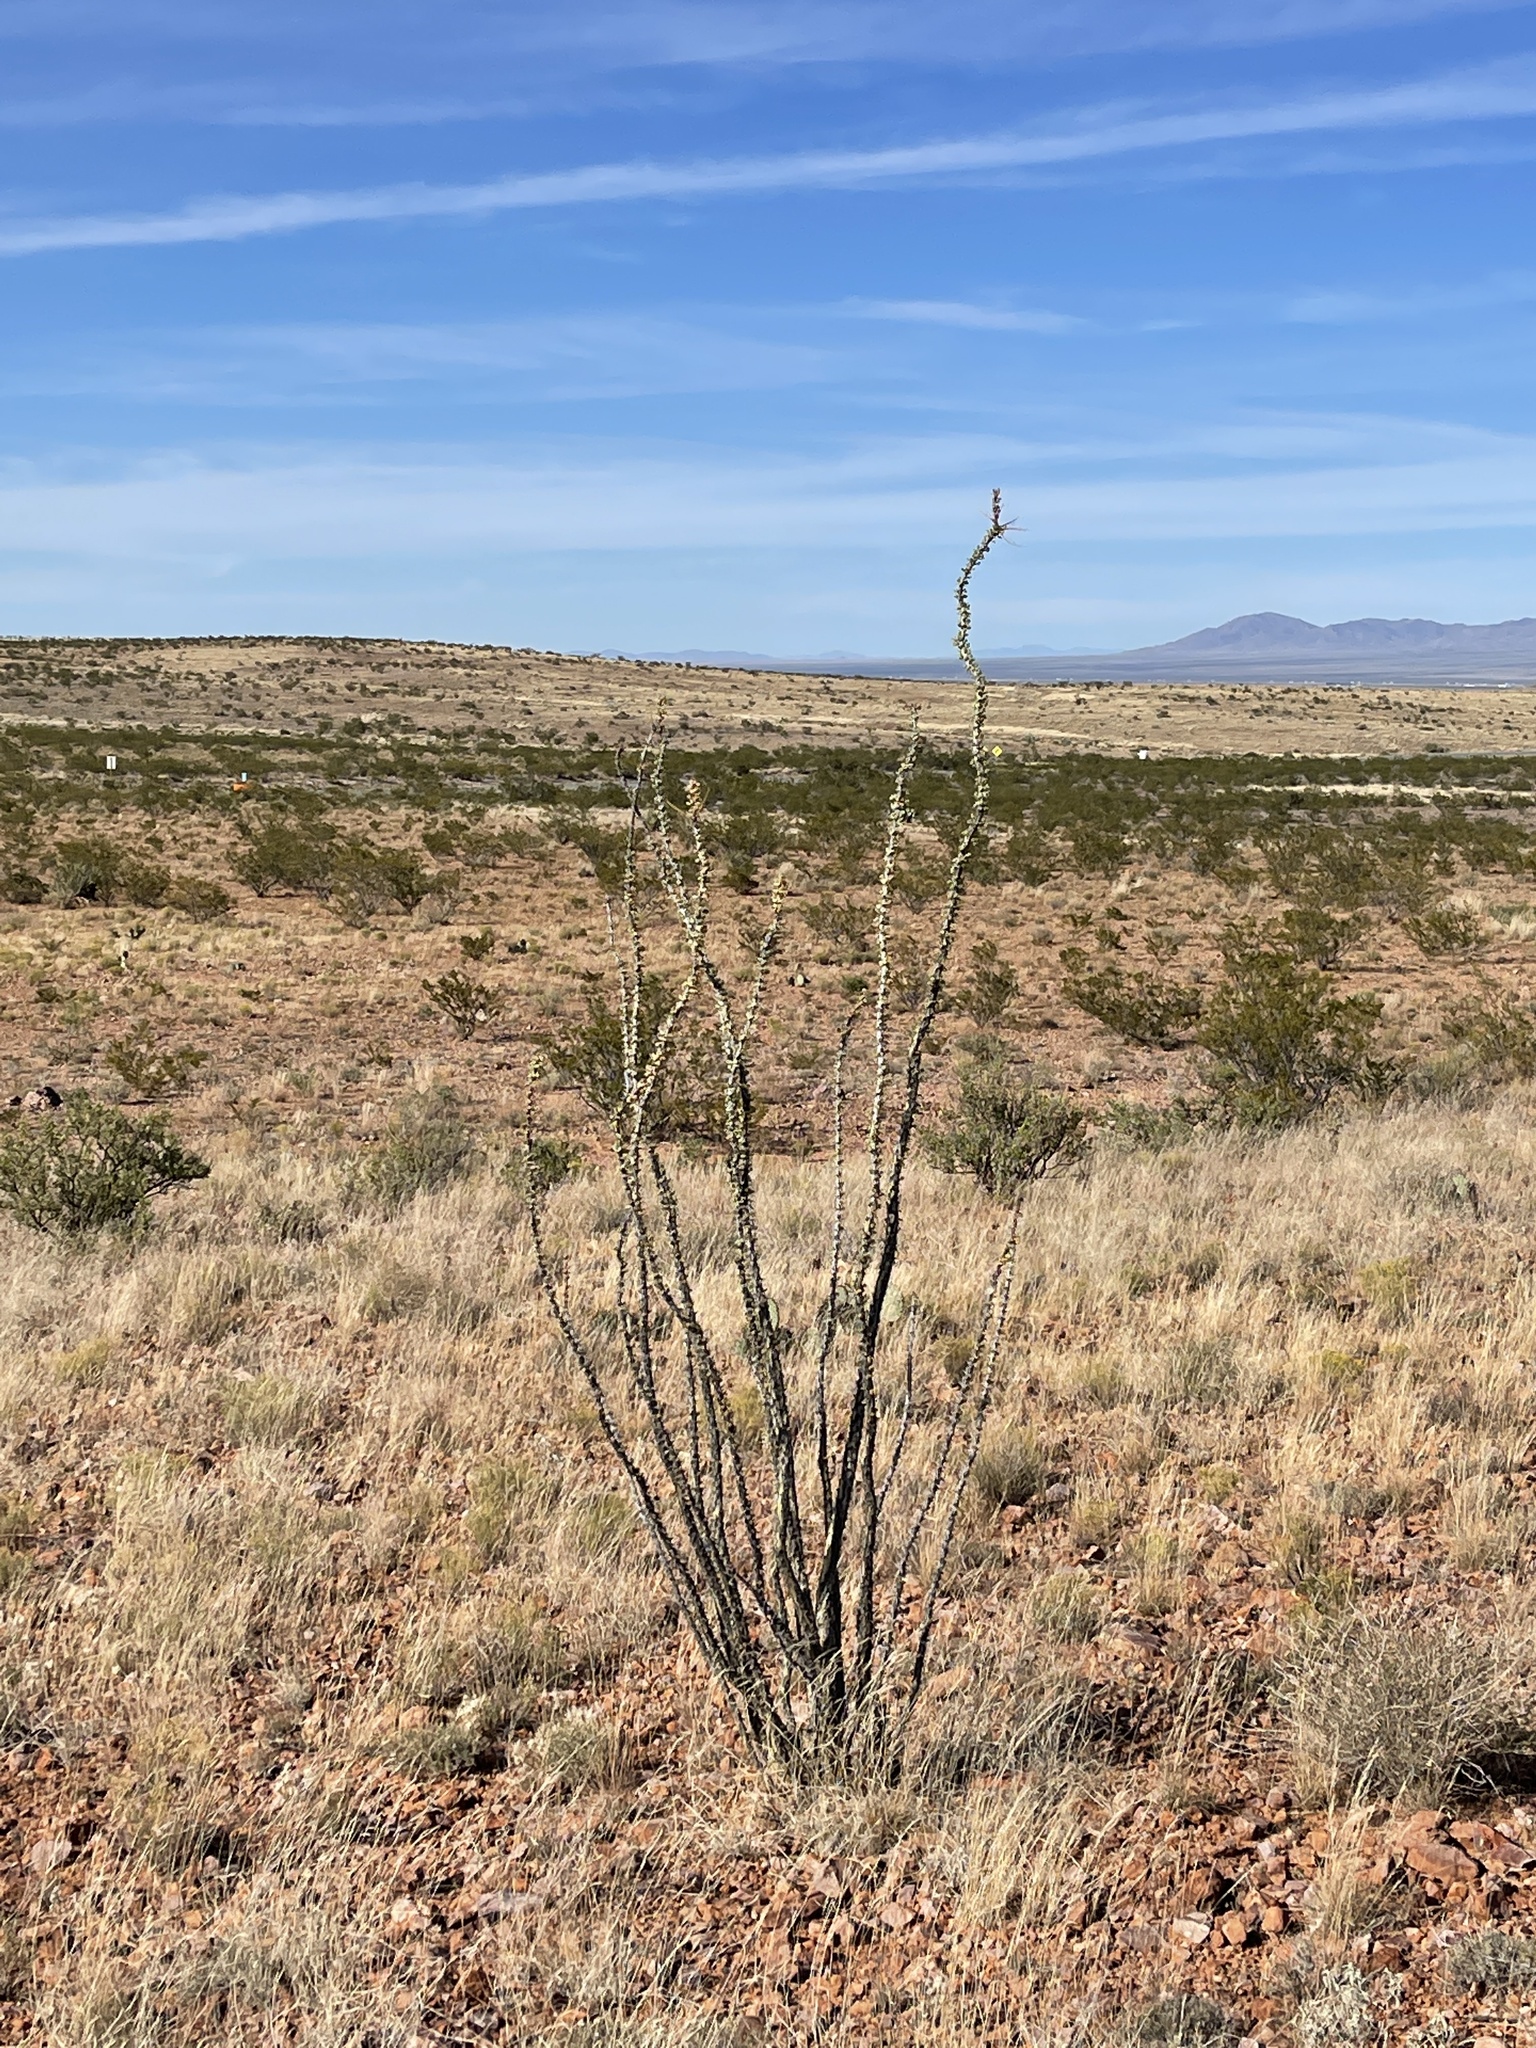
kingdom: Plantae
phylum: Tracheophyta
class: Magnoliopsida
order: Ericales
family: Fouquieriaceae
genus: Fouquieria
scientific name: Fouquieria splendens
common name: Vine-cactus
